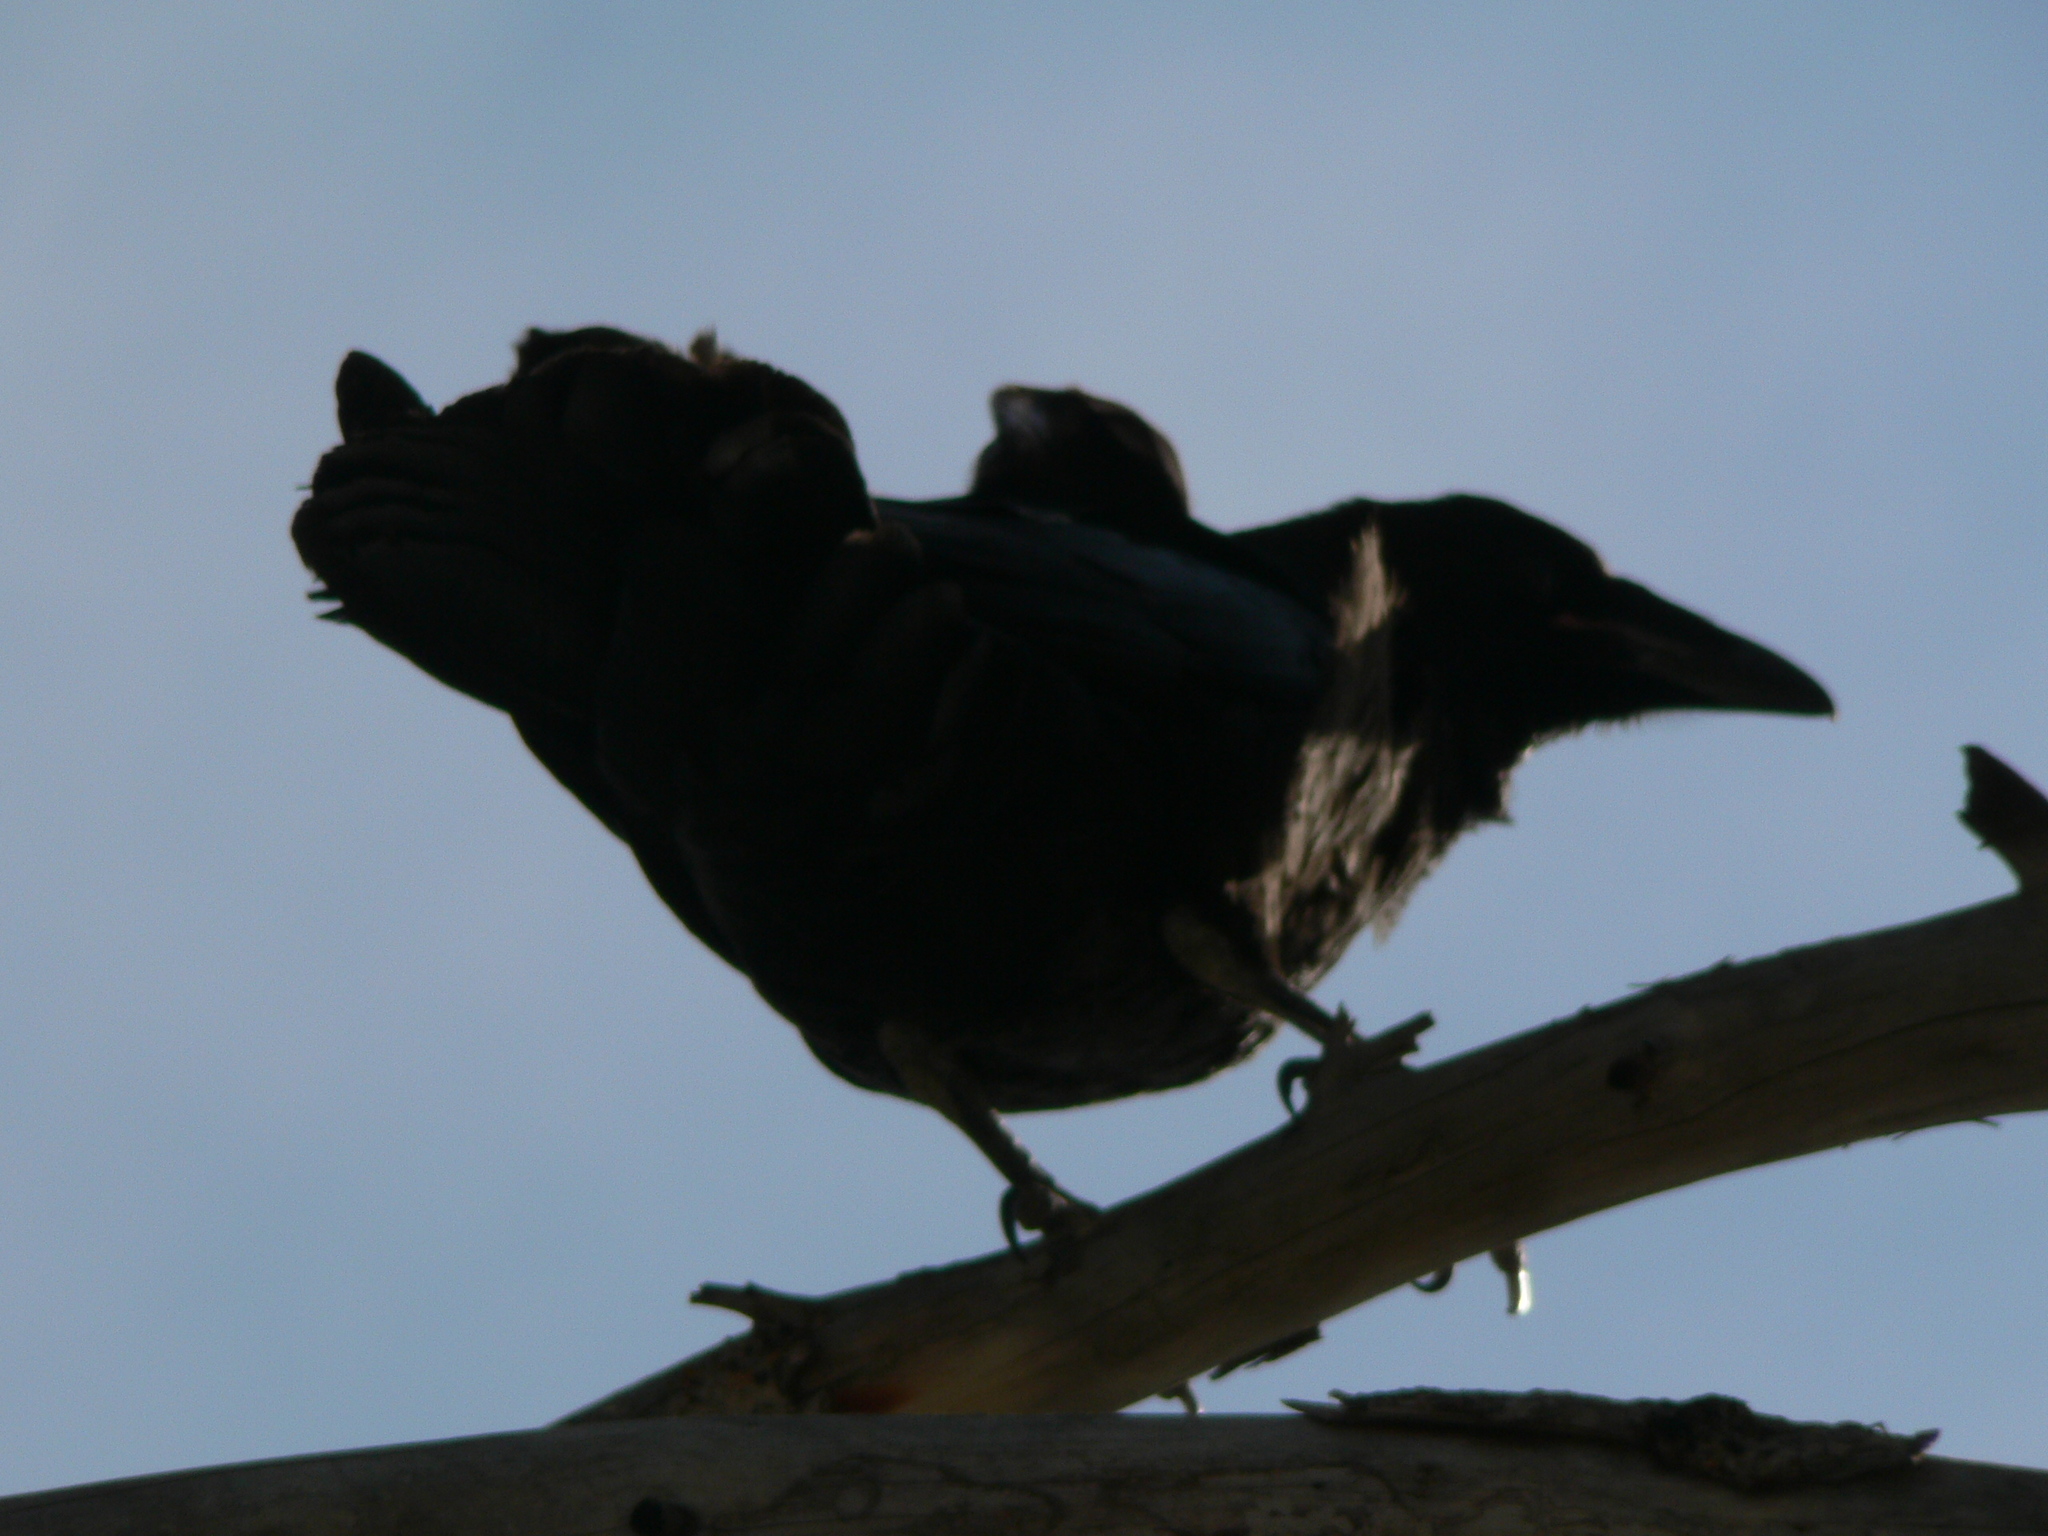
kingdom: Animalia
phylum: Chordata
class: Aves
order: Passeriformes
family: Corvidae
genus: Corvus
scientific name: Corvus corax
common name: Common raven
